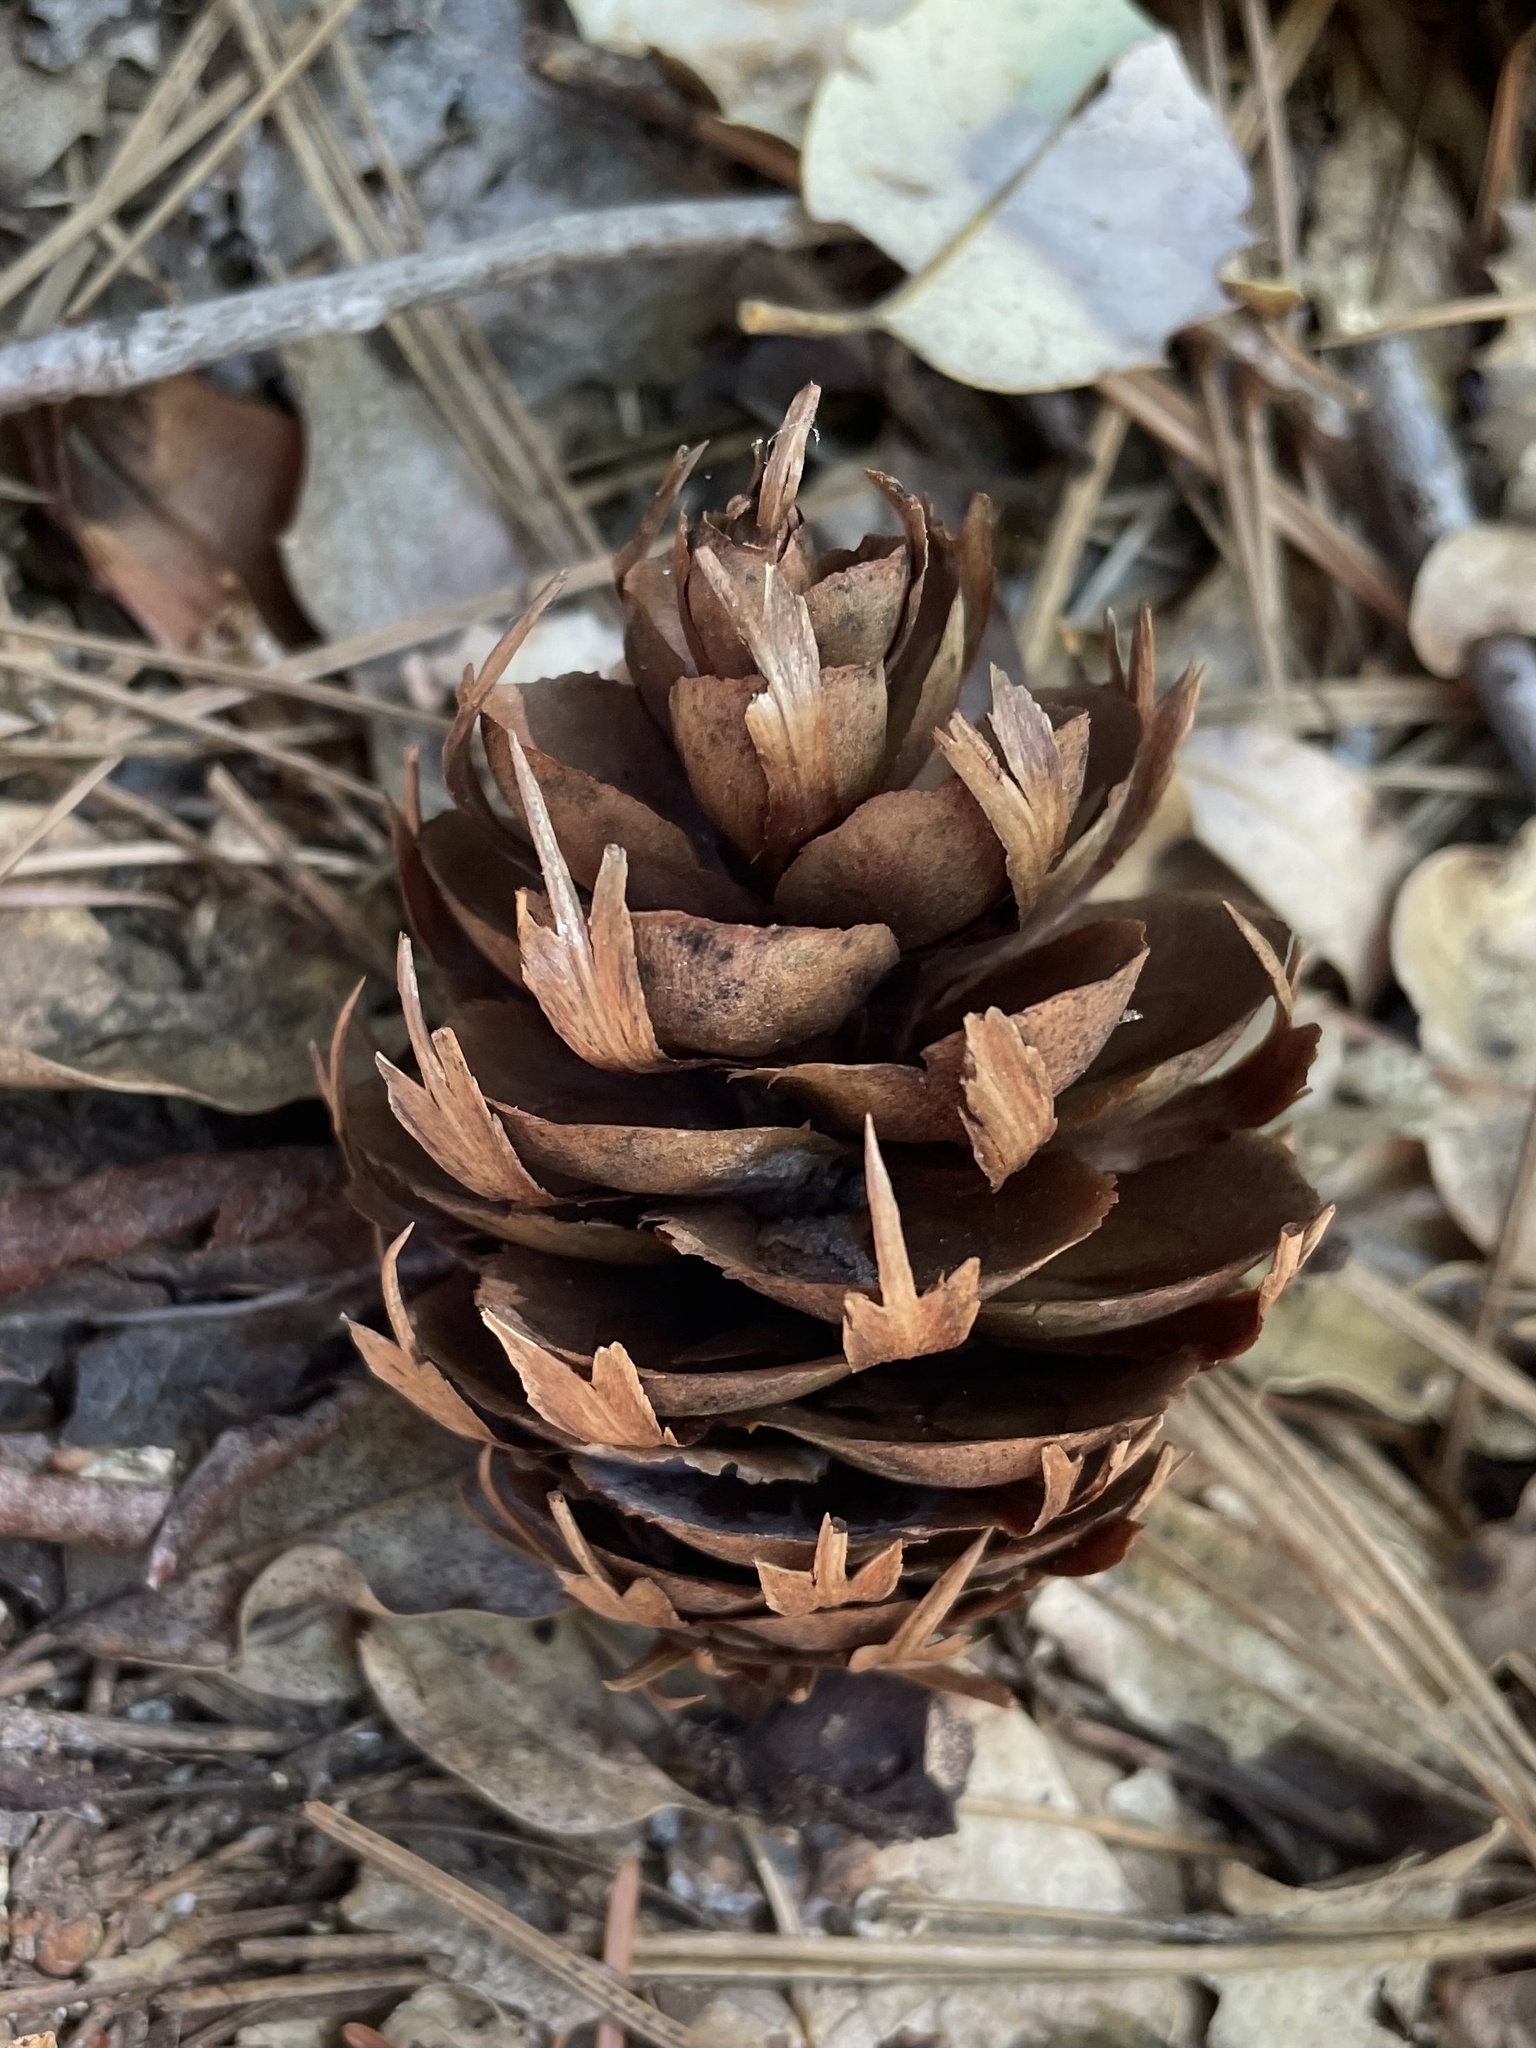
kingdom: Plantae
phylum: Tracheophyta
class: Pinopsida
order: Pinales
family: Pinaceae
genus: Pseudotsuga
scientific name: Pseudotsuga menziesii
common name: Douglas fir
